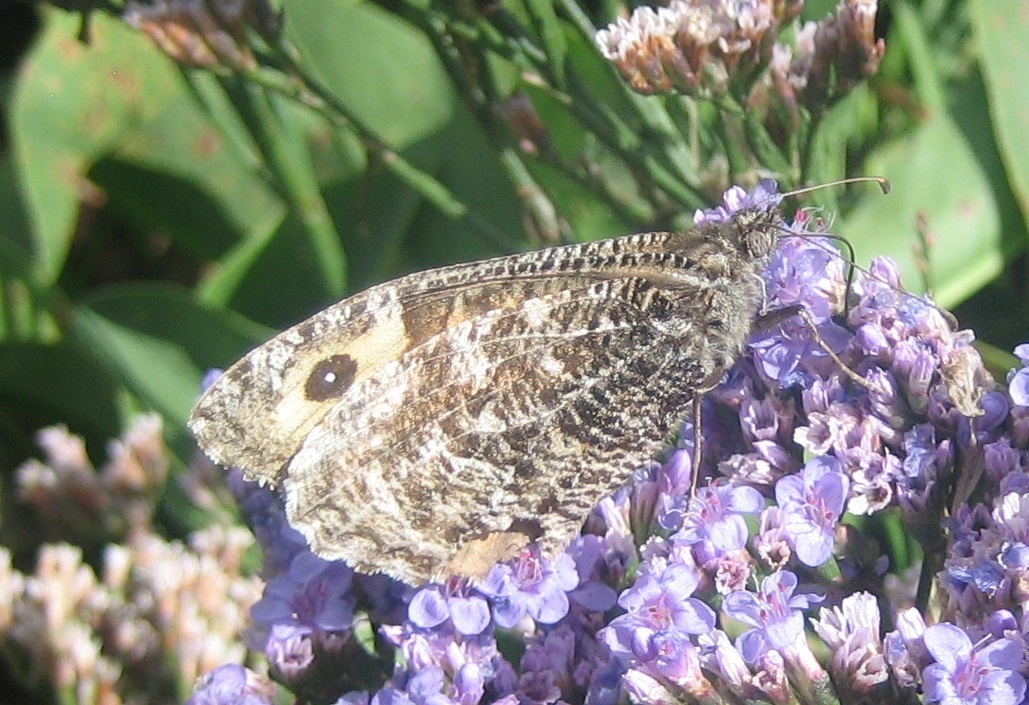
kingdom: Animalia
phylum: Arthropoda
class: Insecta
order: Lepidoptera
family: Nymphalidae
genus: Hipparchia
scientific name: Hipparchia semele
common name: Grayling
